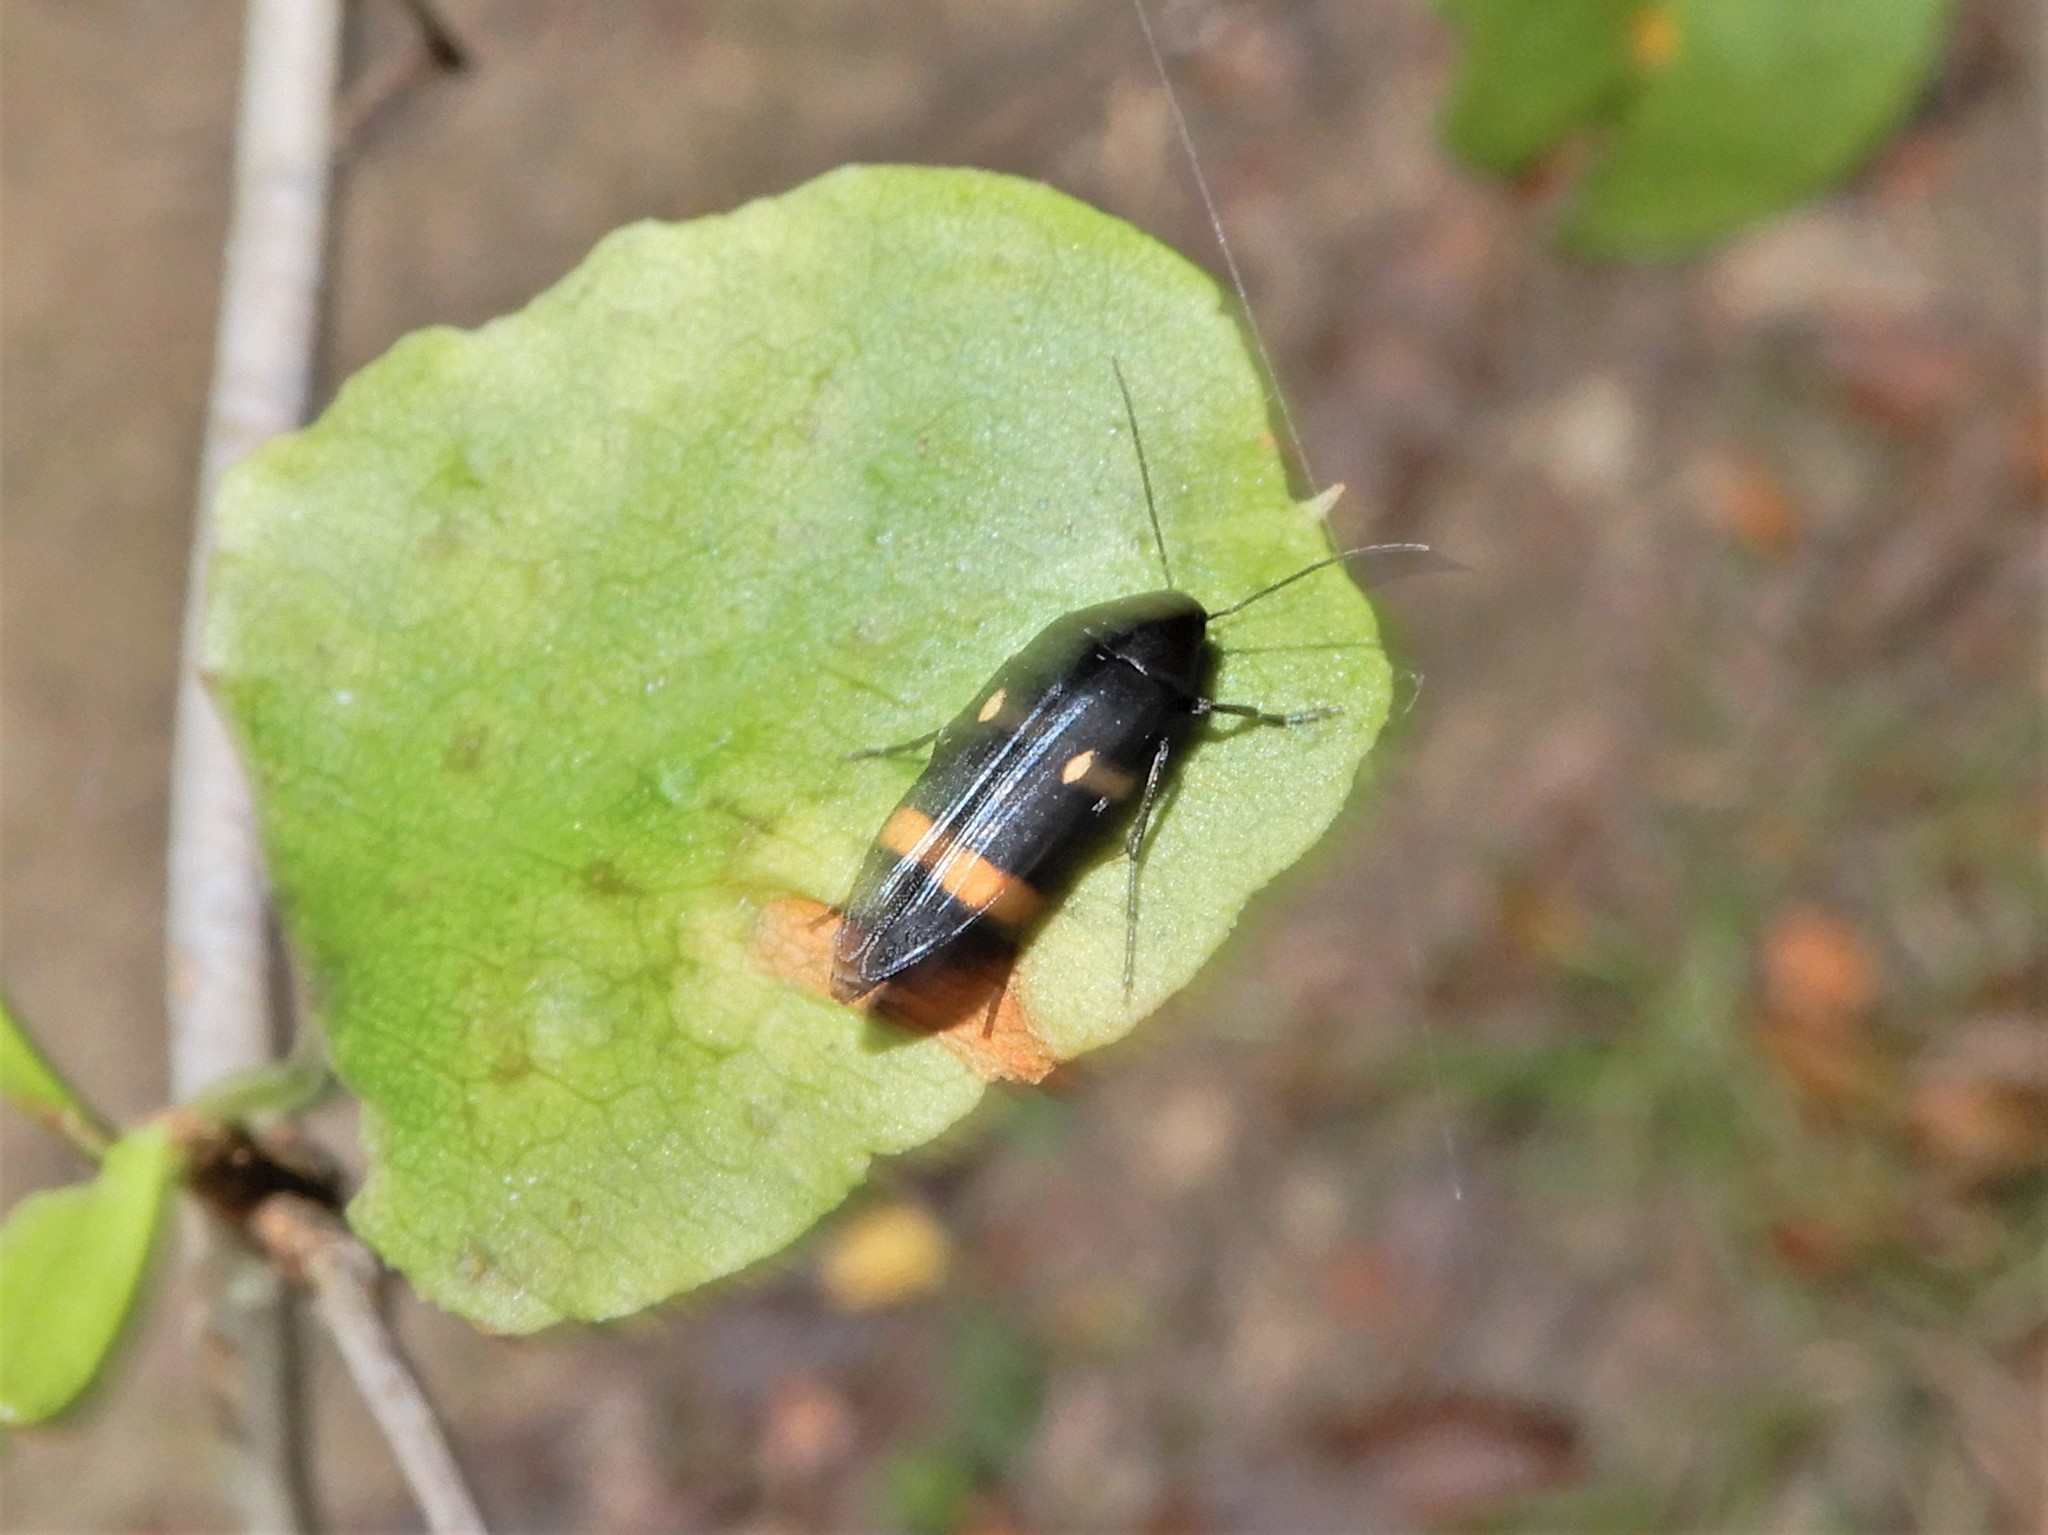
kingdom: Animalia
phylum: Arthropoda
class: Insecta
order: Coleoptera
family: Melandryidae
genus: Ctenoplectron
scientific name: Ctenoplectron
